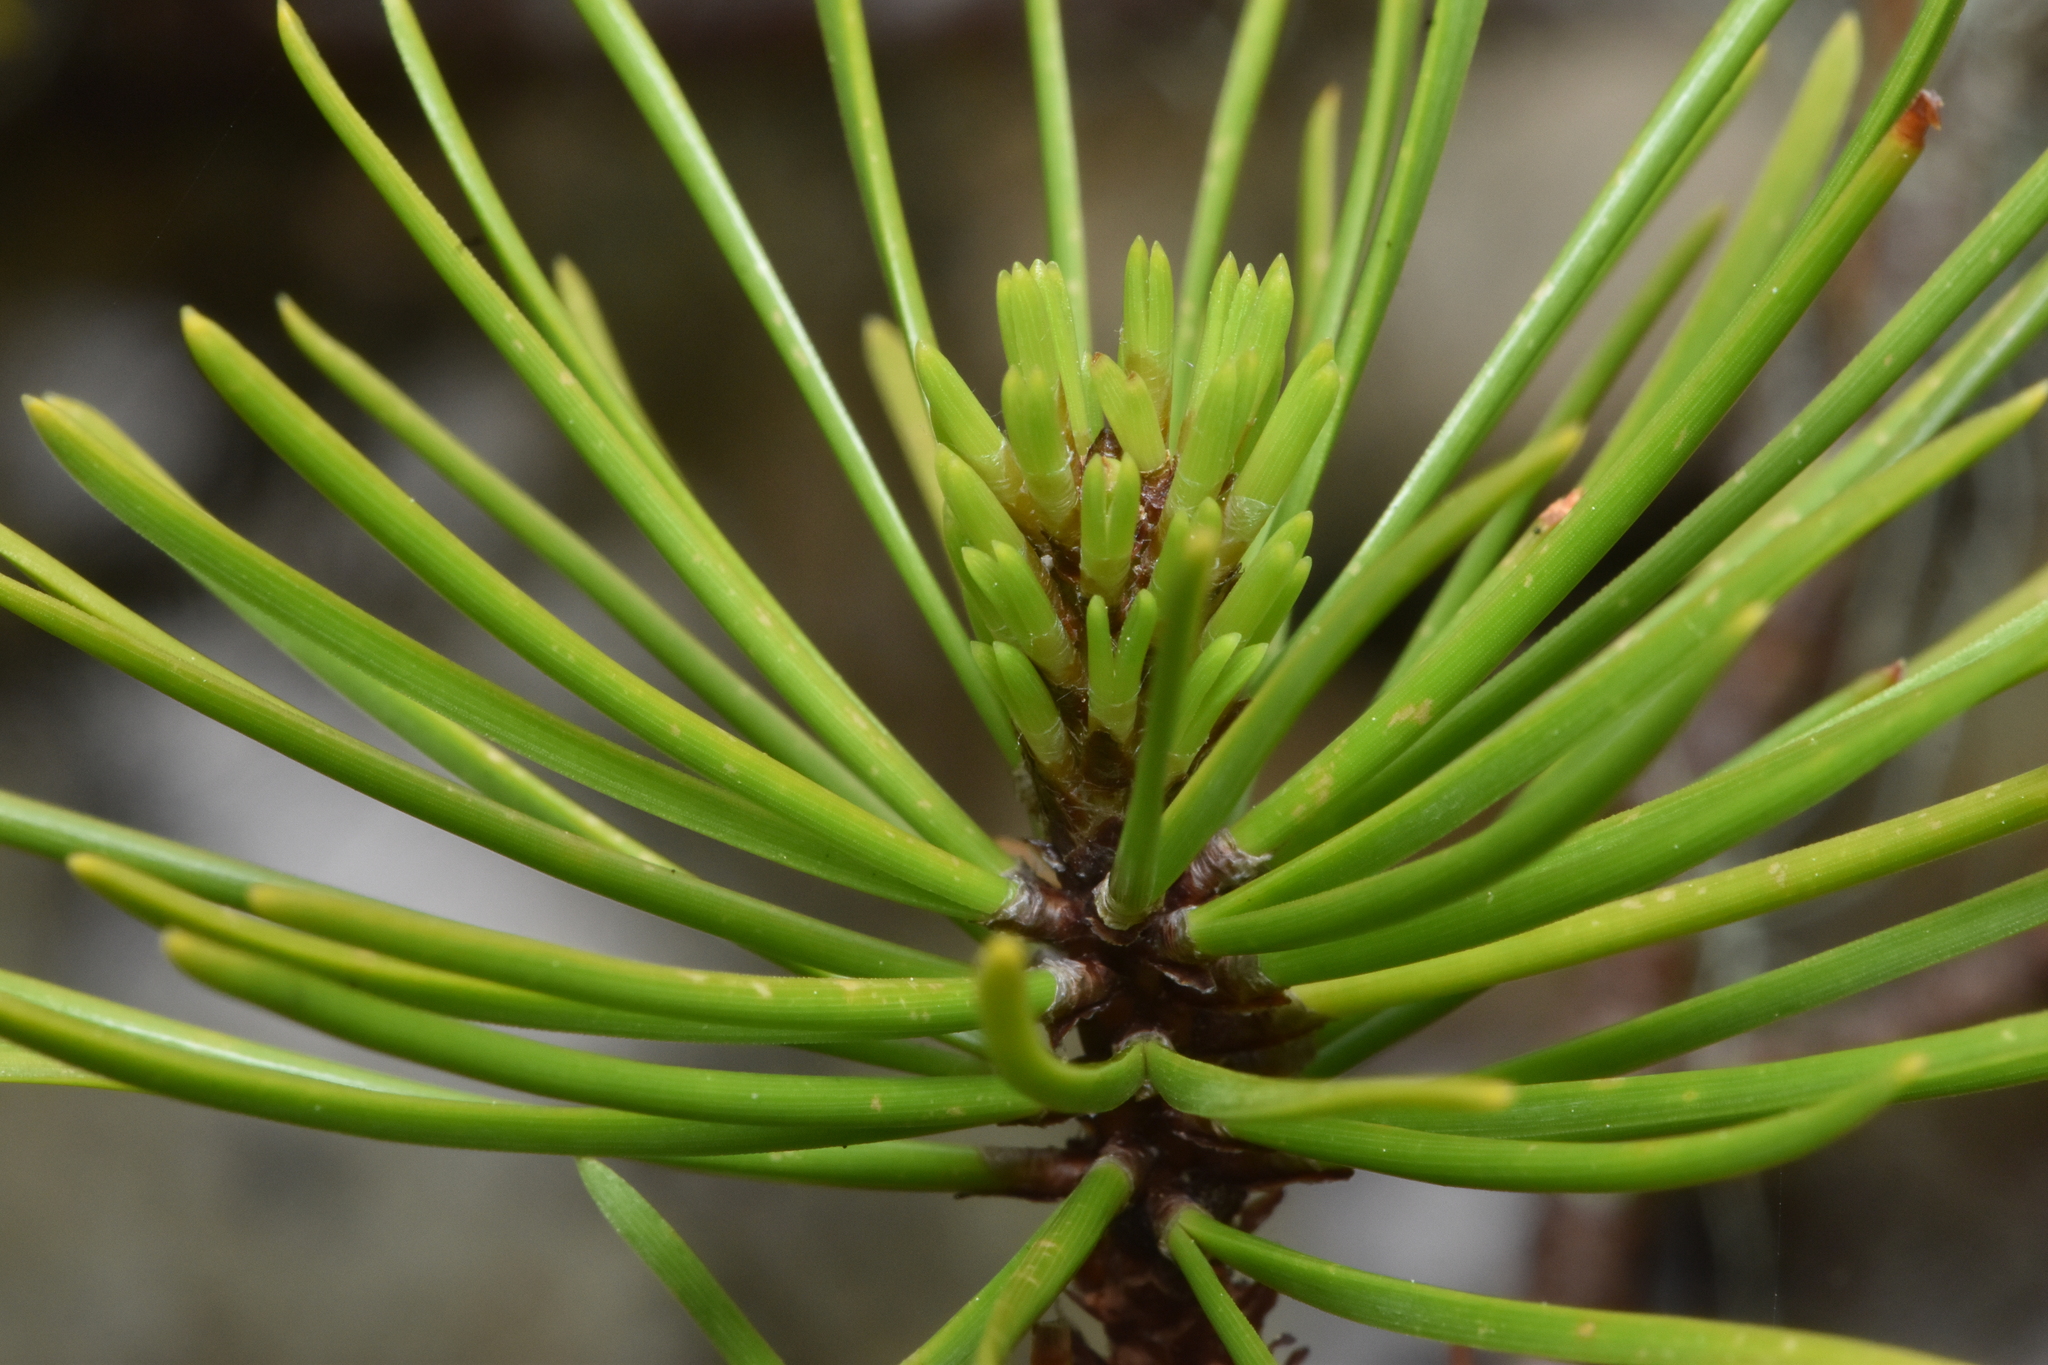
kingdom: Plantae
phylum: Tracheophyta
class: Pinopsida
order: Pinales
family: Pinaceae
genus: Pinus
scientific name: Pinus contorta
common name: Lodgepole pine
